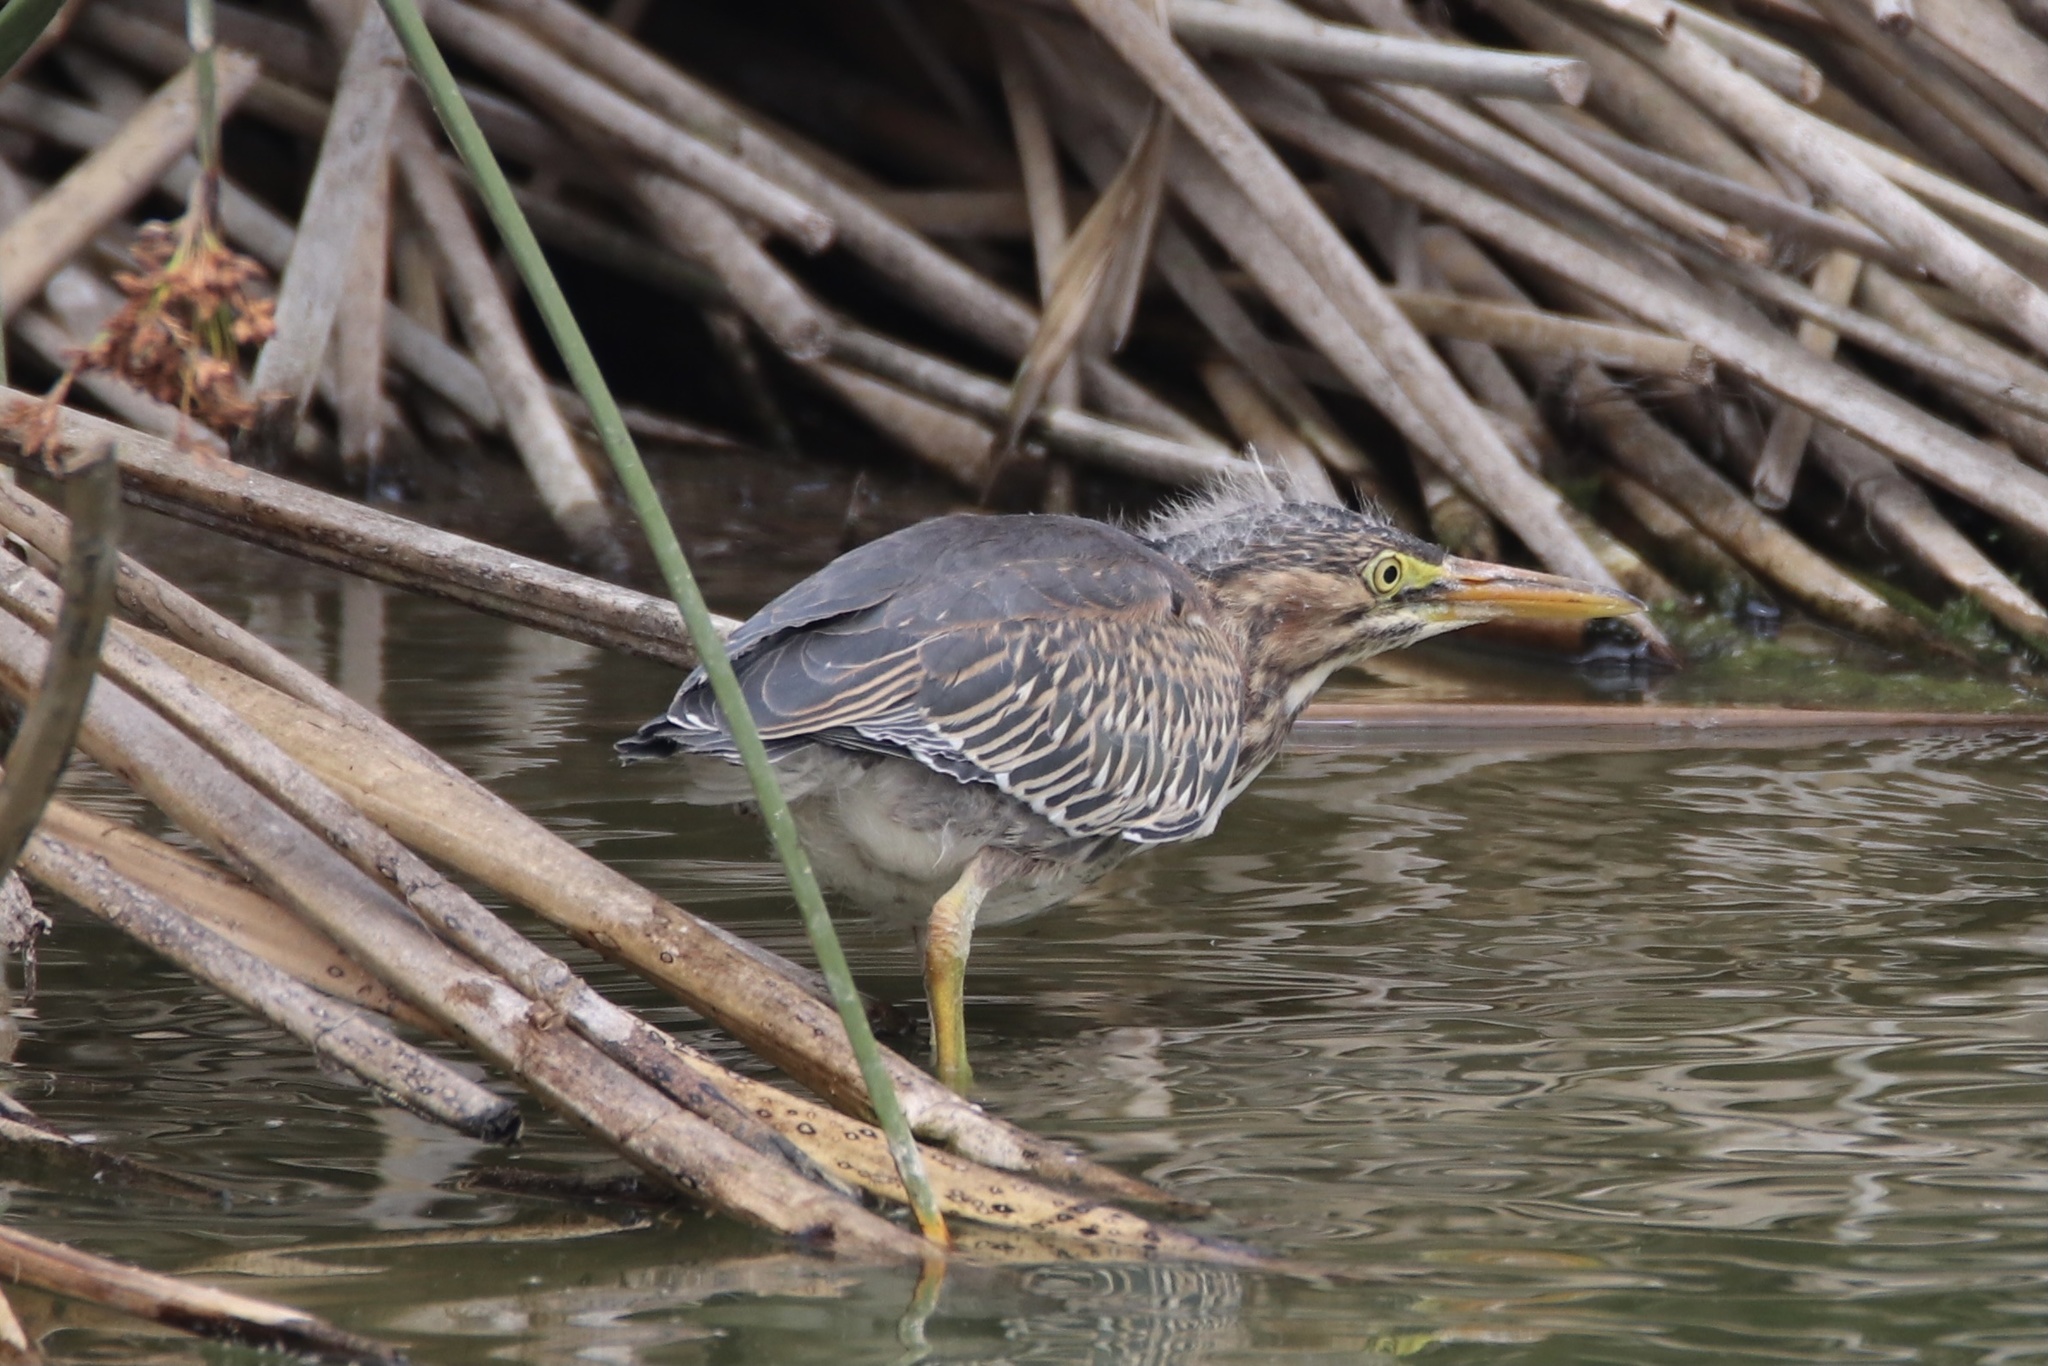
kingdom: Animalia
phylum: Chordata
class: Aves
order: Pelecaniformes
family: Ardeidae
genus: Butorides
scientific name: Butorides virescens
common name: Green heron
